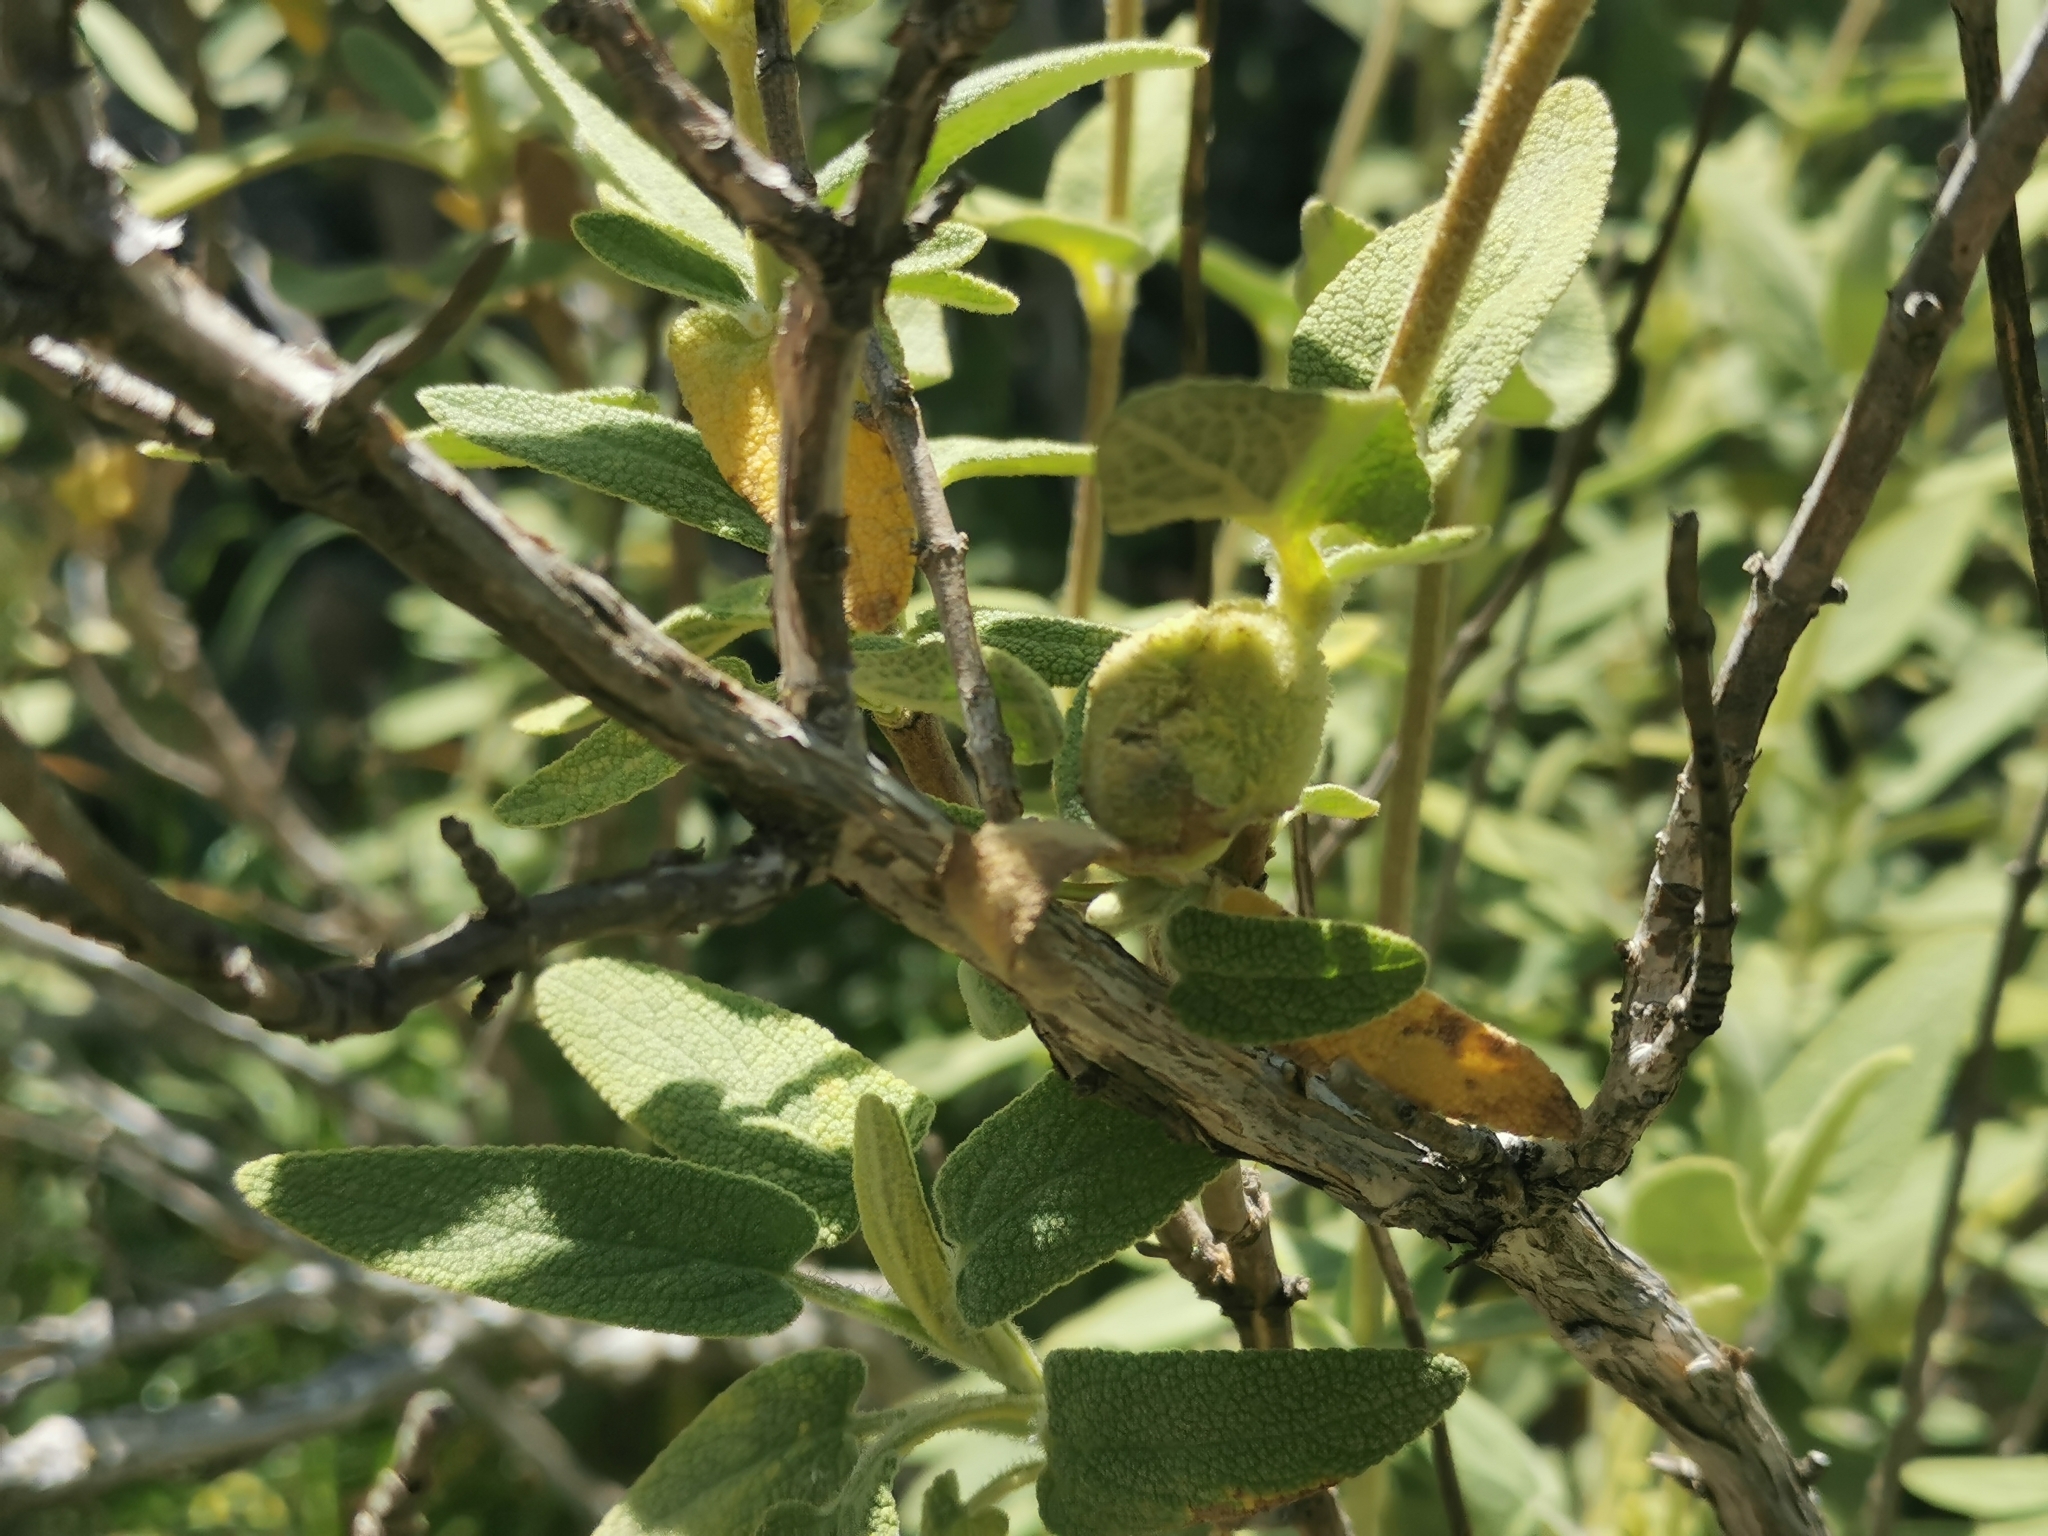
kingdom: Animalia
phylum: Arthropoda
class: Insecta
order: Diptera
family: Cecidomyiidae
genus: Asphondylia
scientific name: Asphondylia phlomidis
